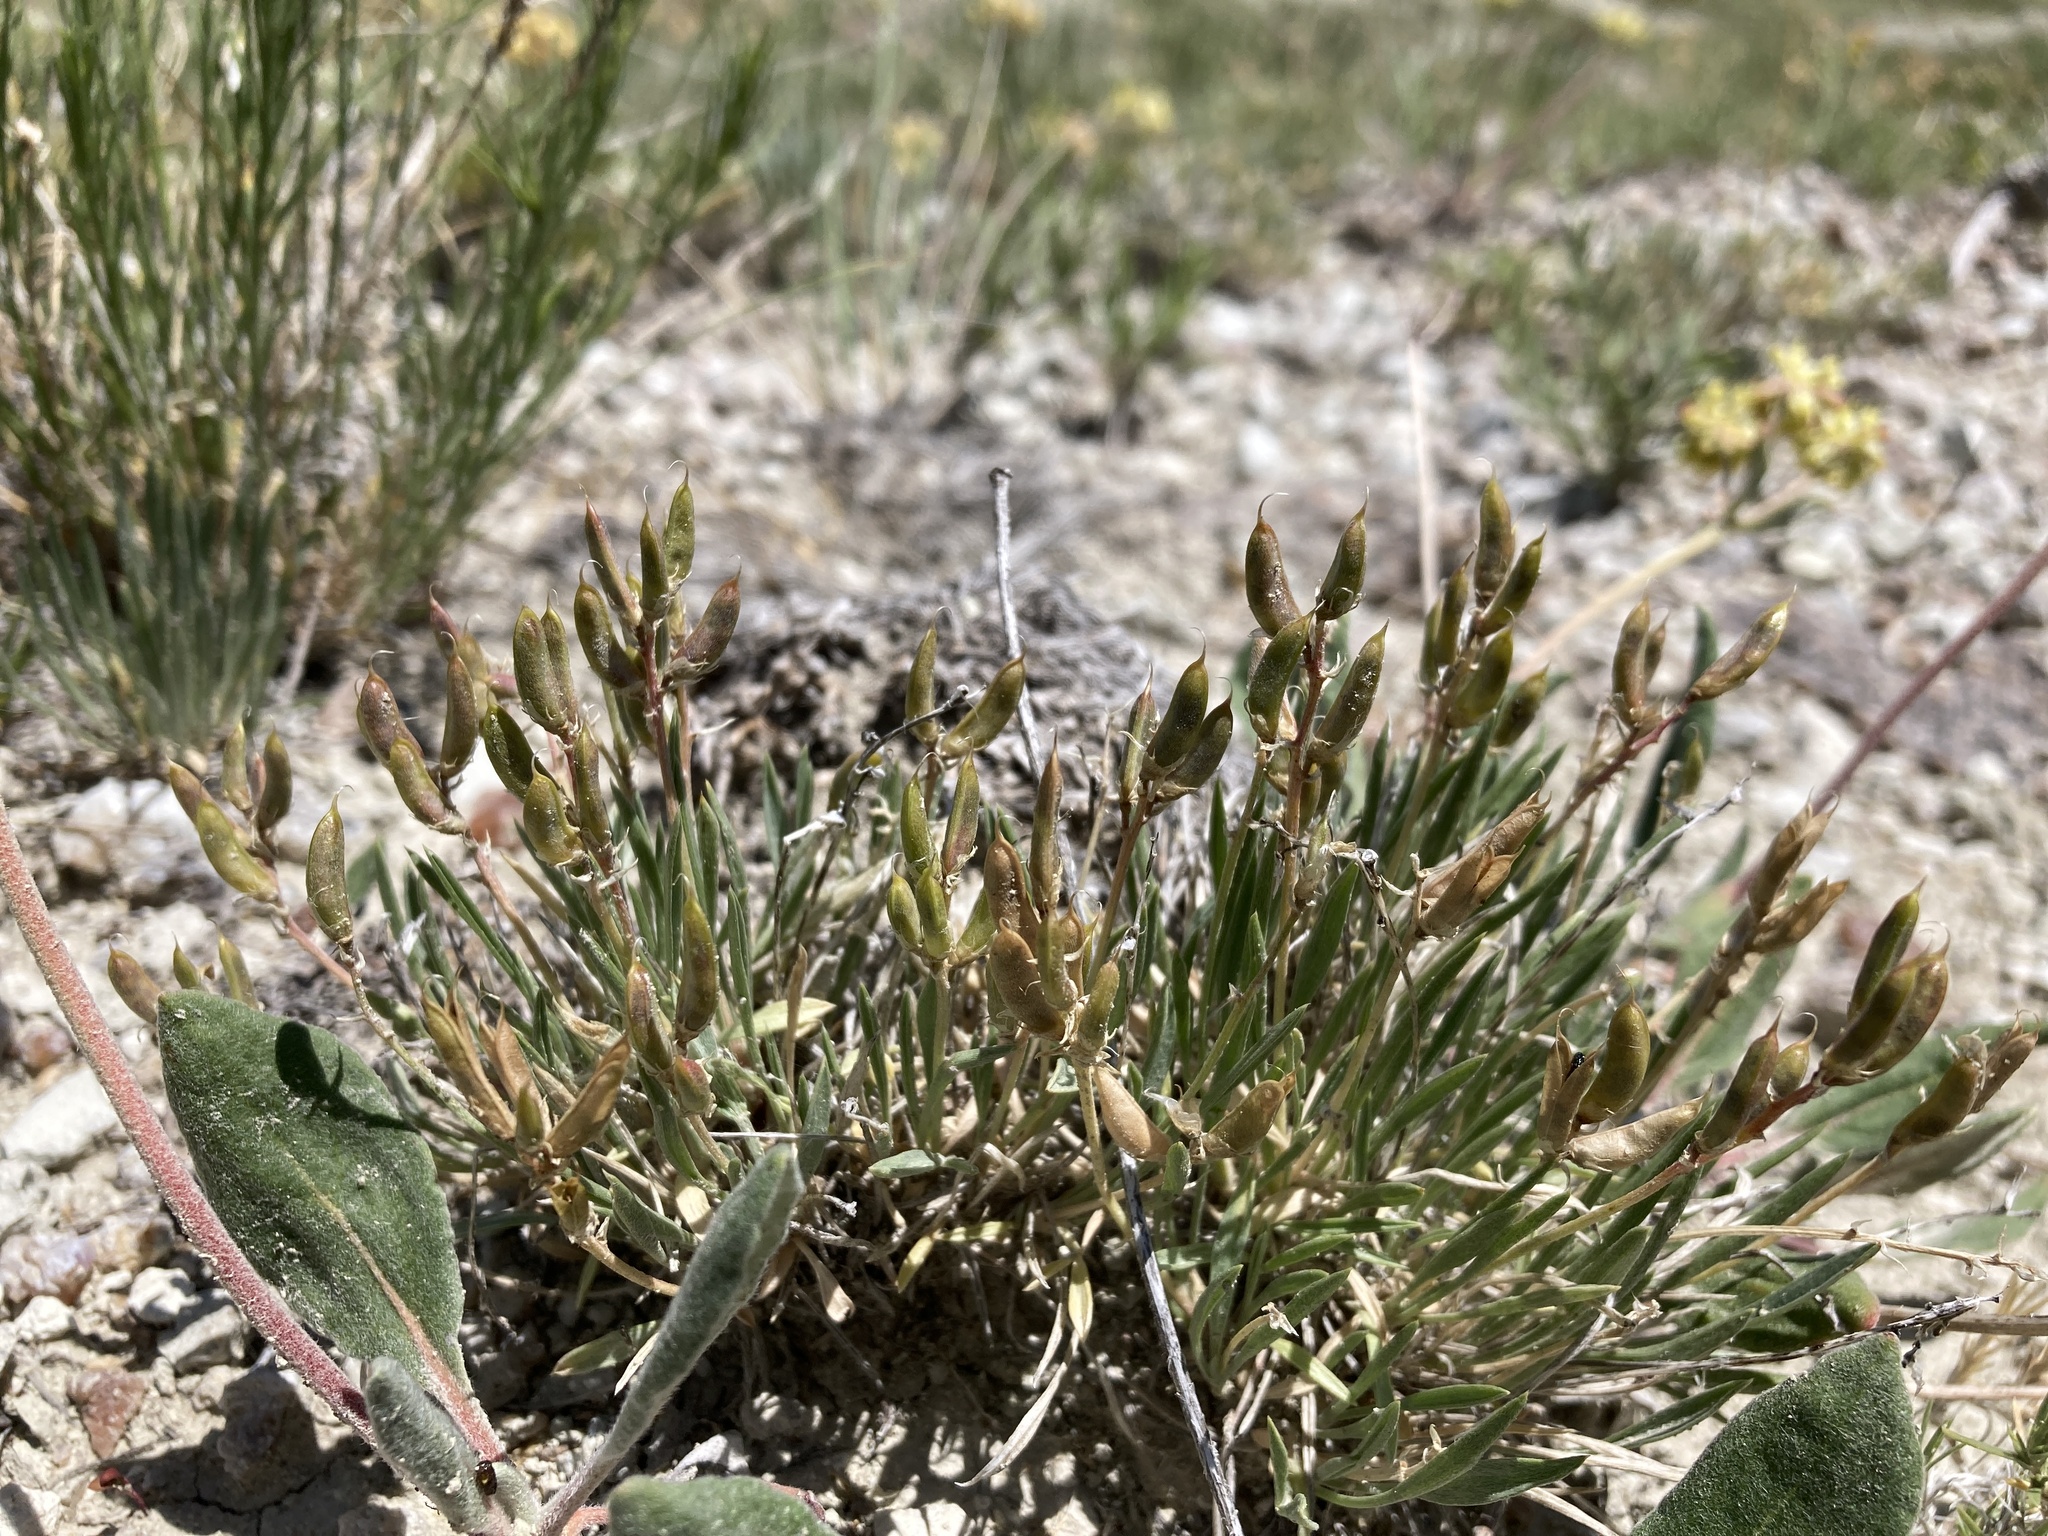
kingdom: Plantae
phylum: Tracheophyta
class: Magnoliopsida
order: Fabales
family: Fabaceae
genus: Astragalus
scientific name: Astragalus spatulatus
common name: Draba milk-vetch
